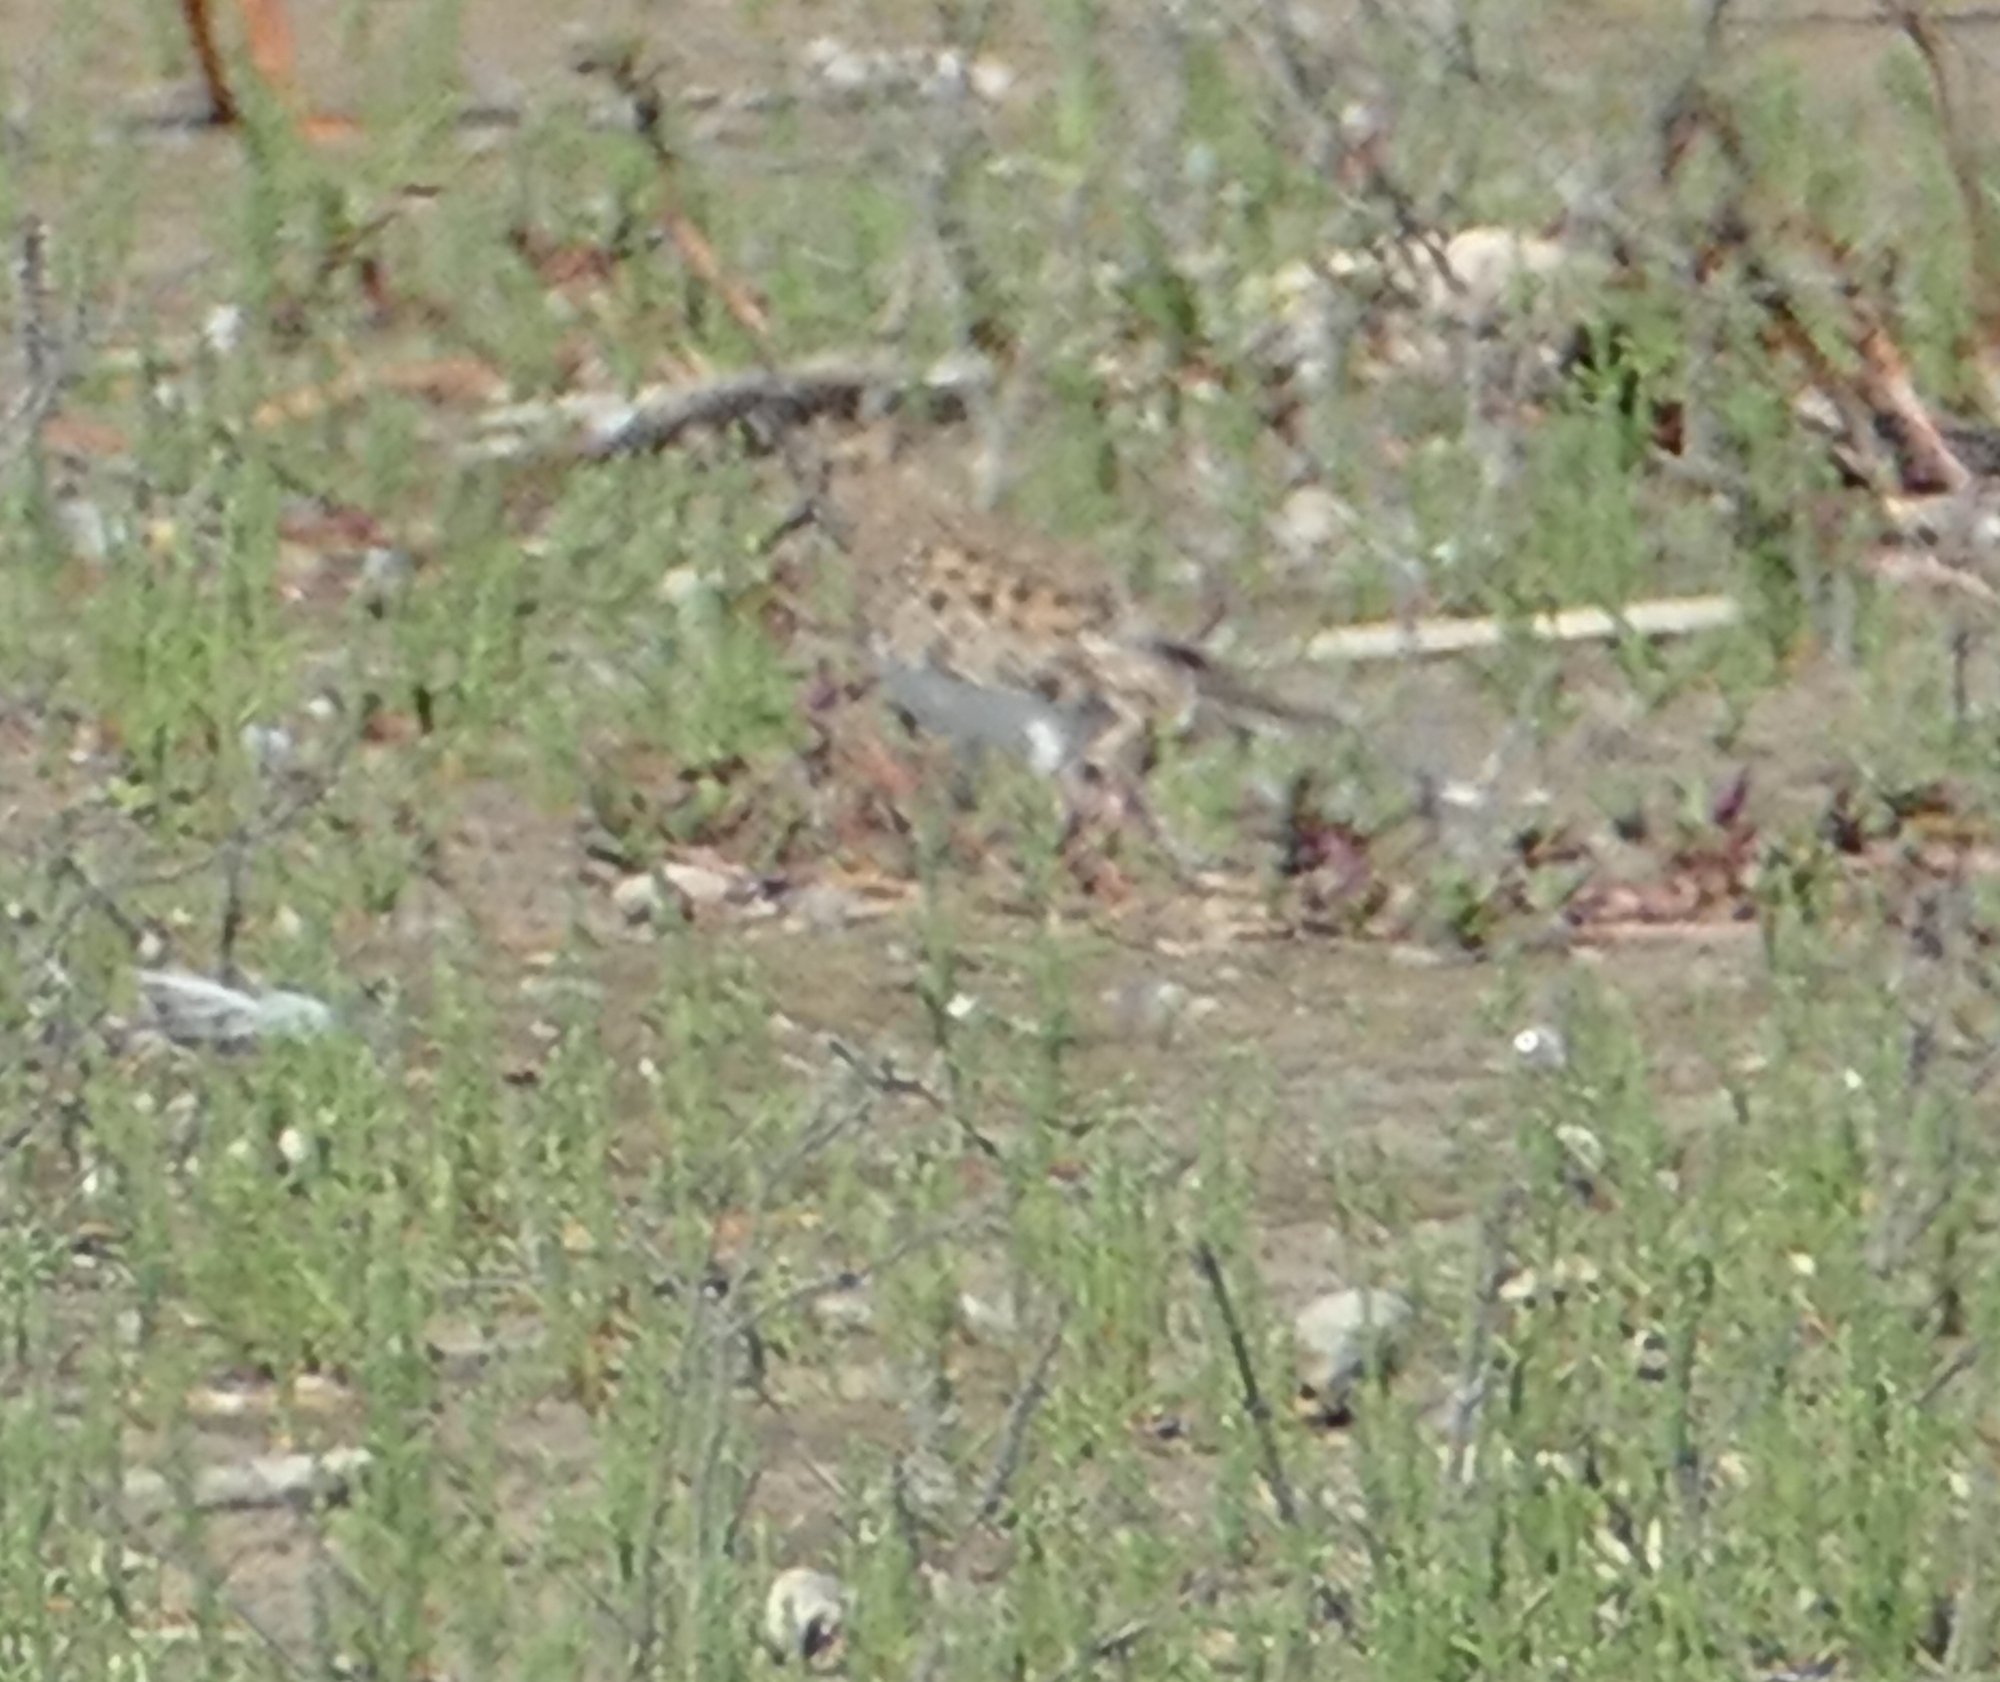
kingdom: Animalia
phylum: Chordata
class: Aves
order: Charadriiformes
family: Scolopacidae
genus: Calidris
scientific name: Calidris bairdii
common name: Baird's sandpiper
